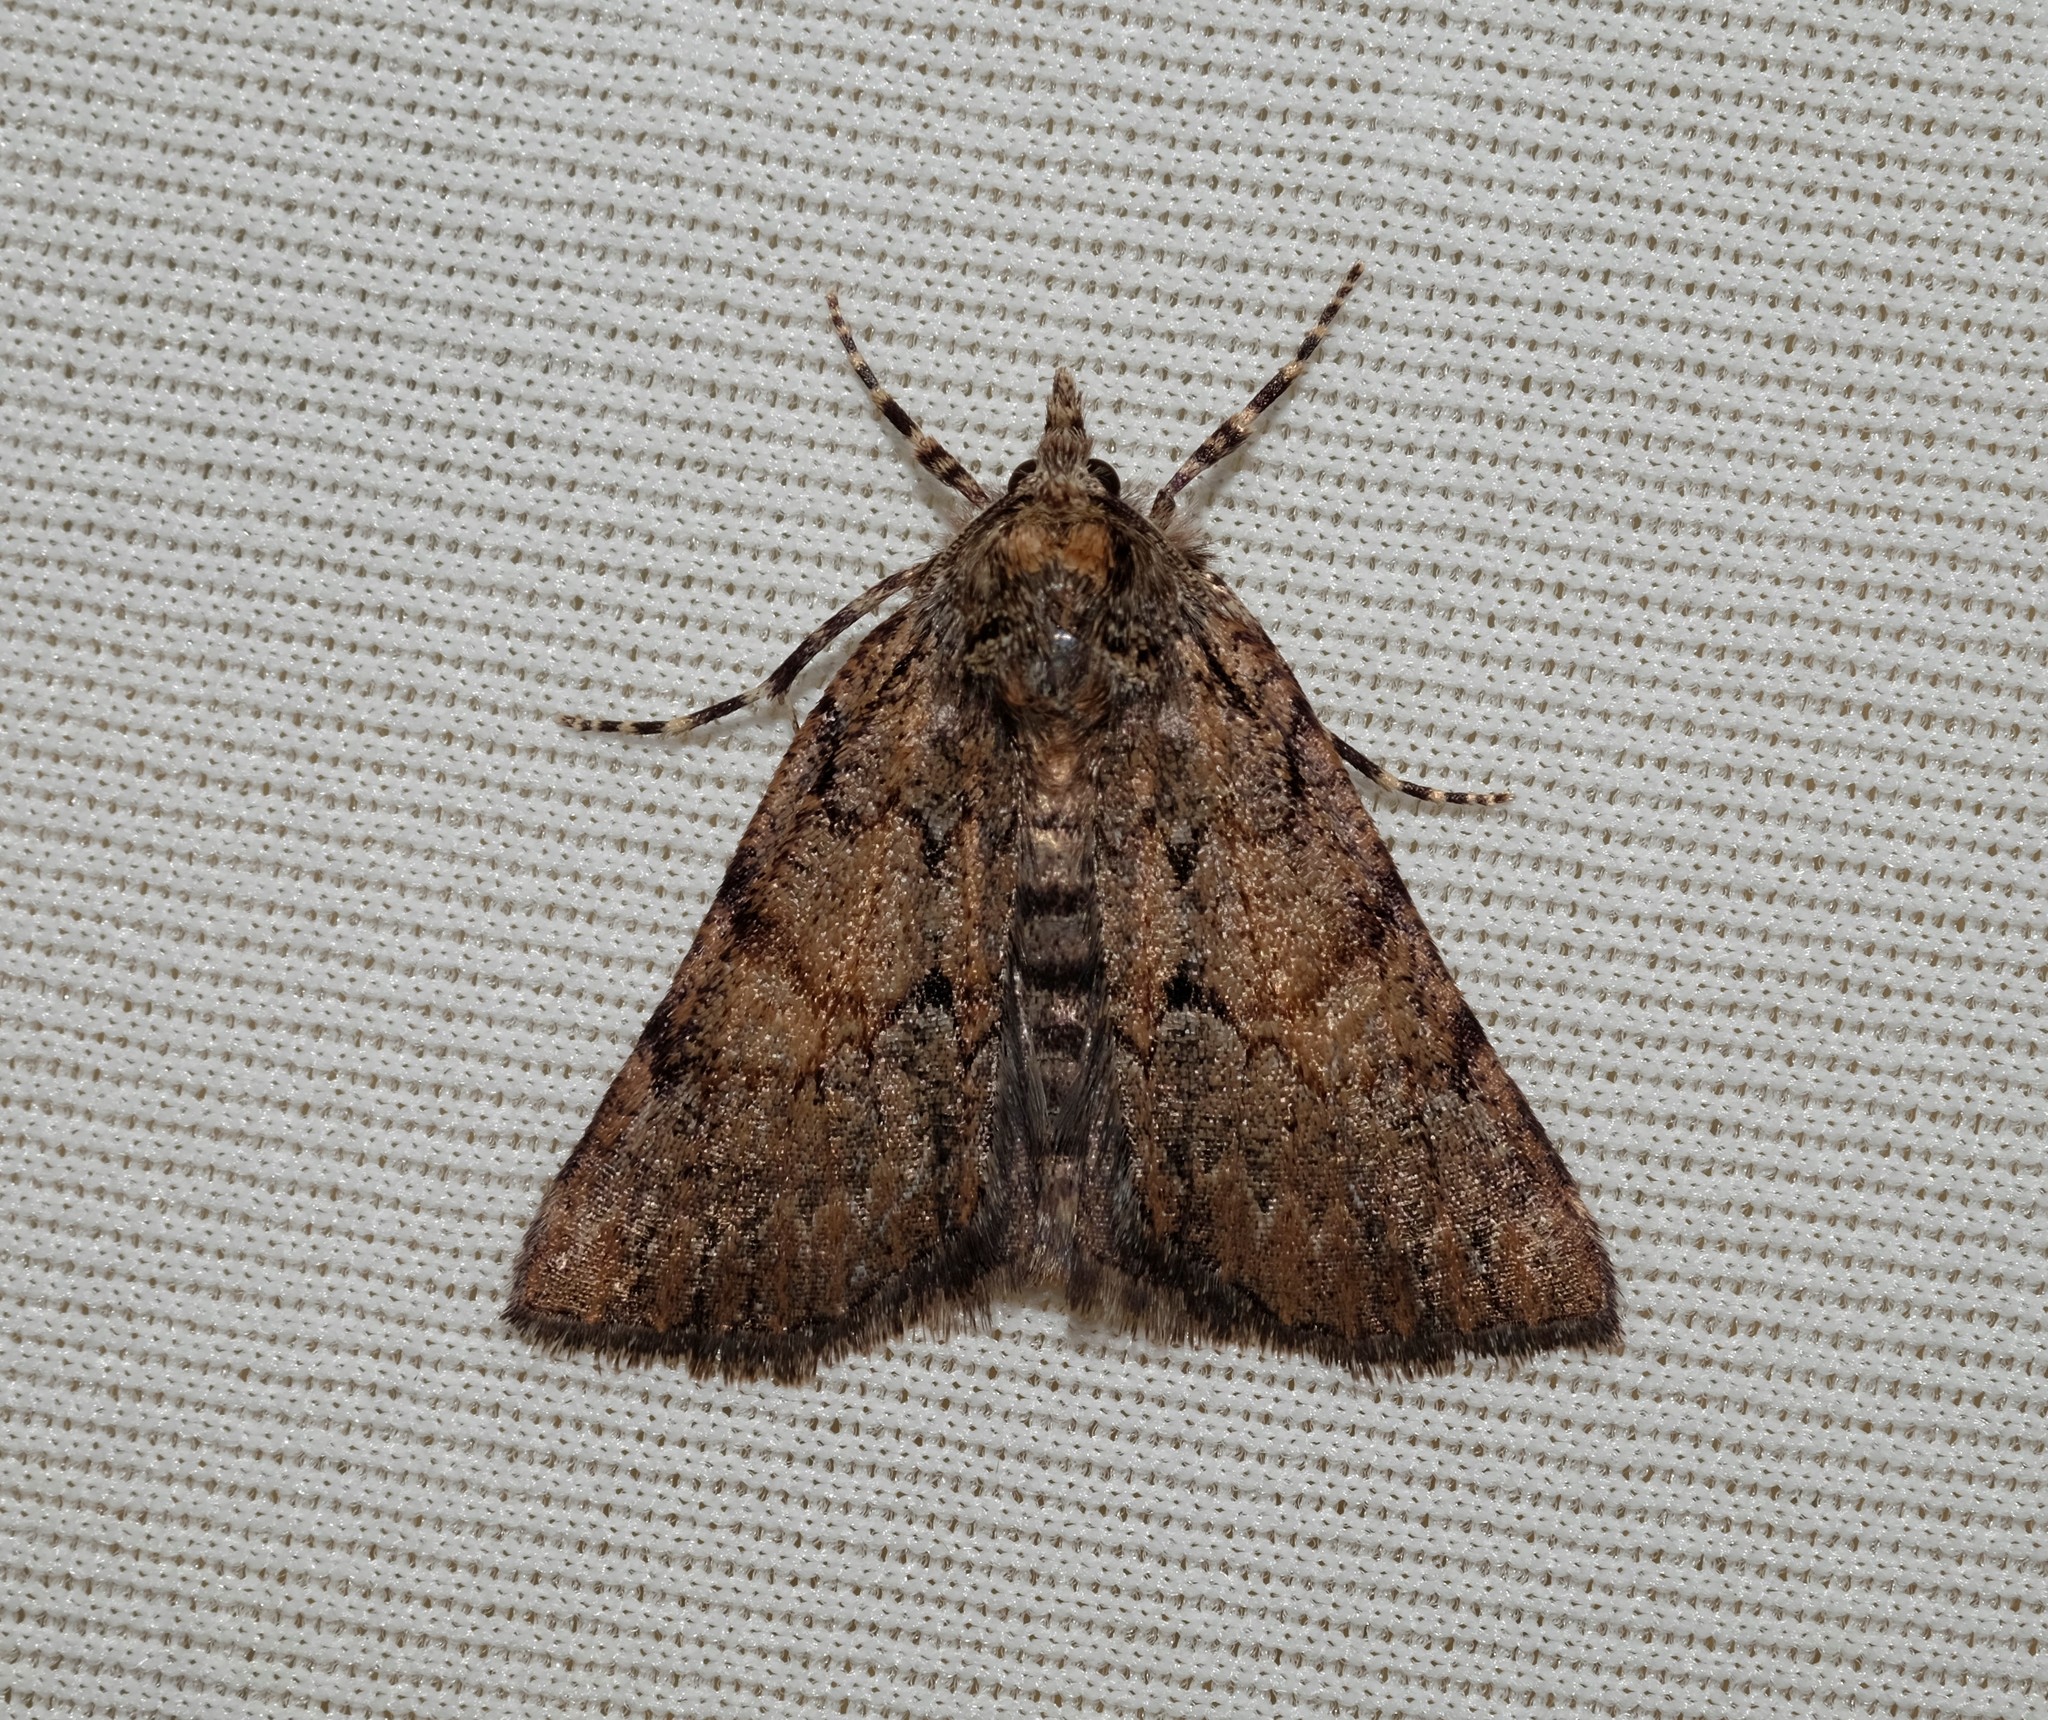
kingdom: Animalia
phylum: Arthropoda
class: Insecta
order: Lepidoptera
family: Geometridae
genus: Smyriodes
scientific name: Smyriodes
